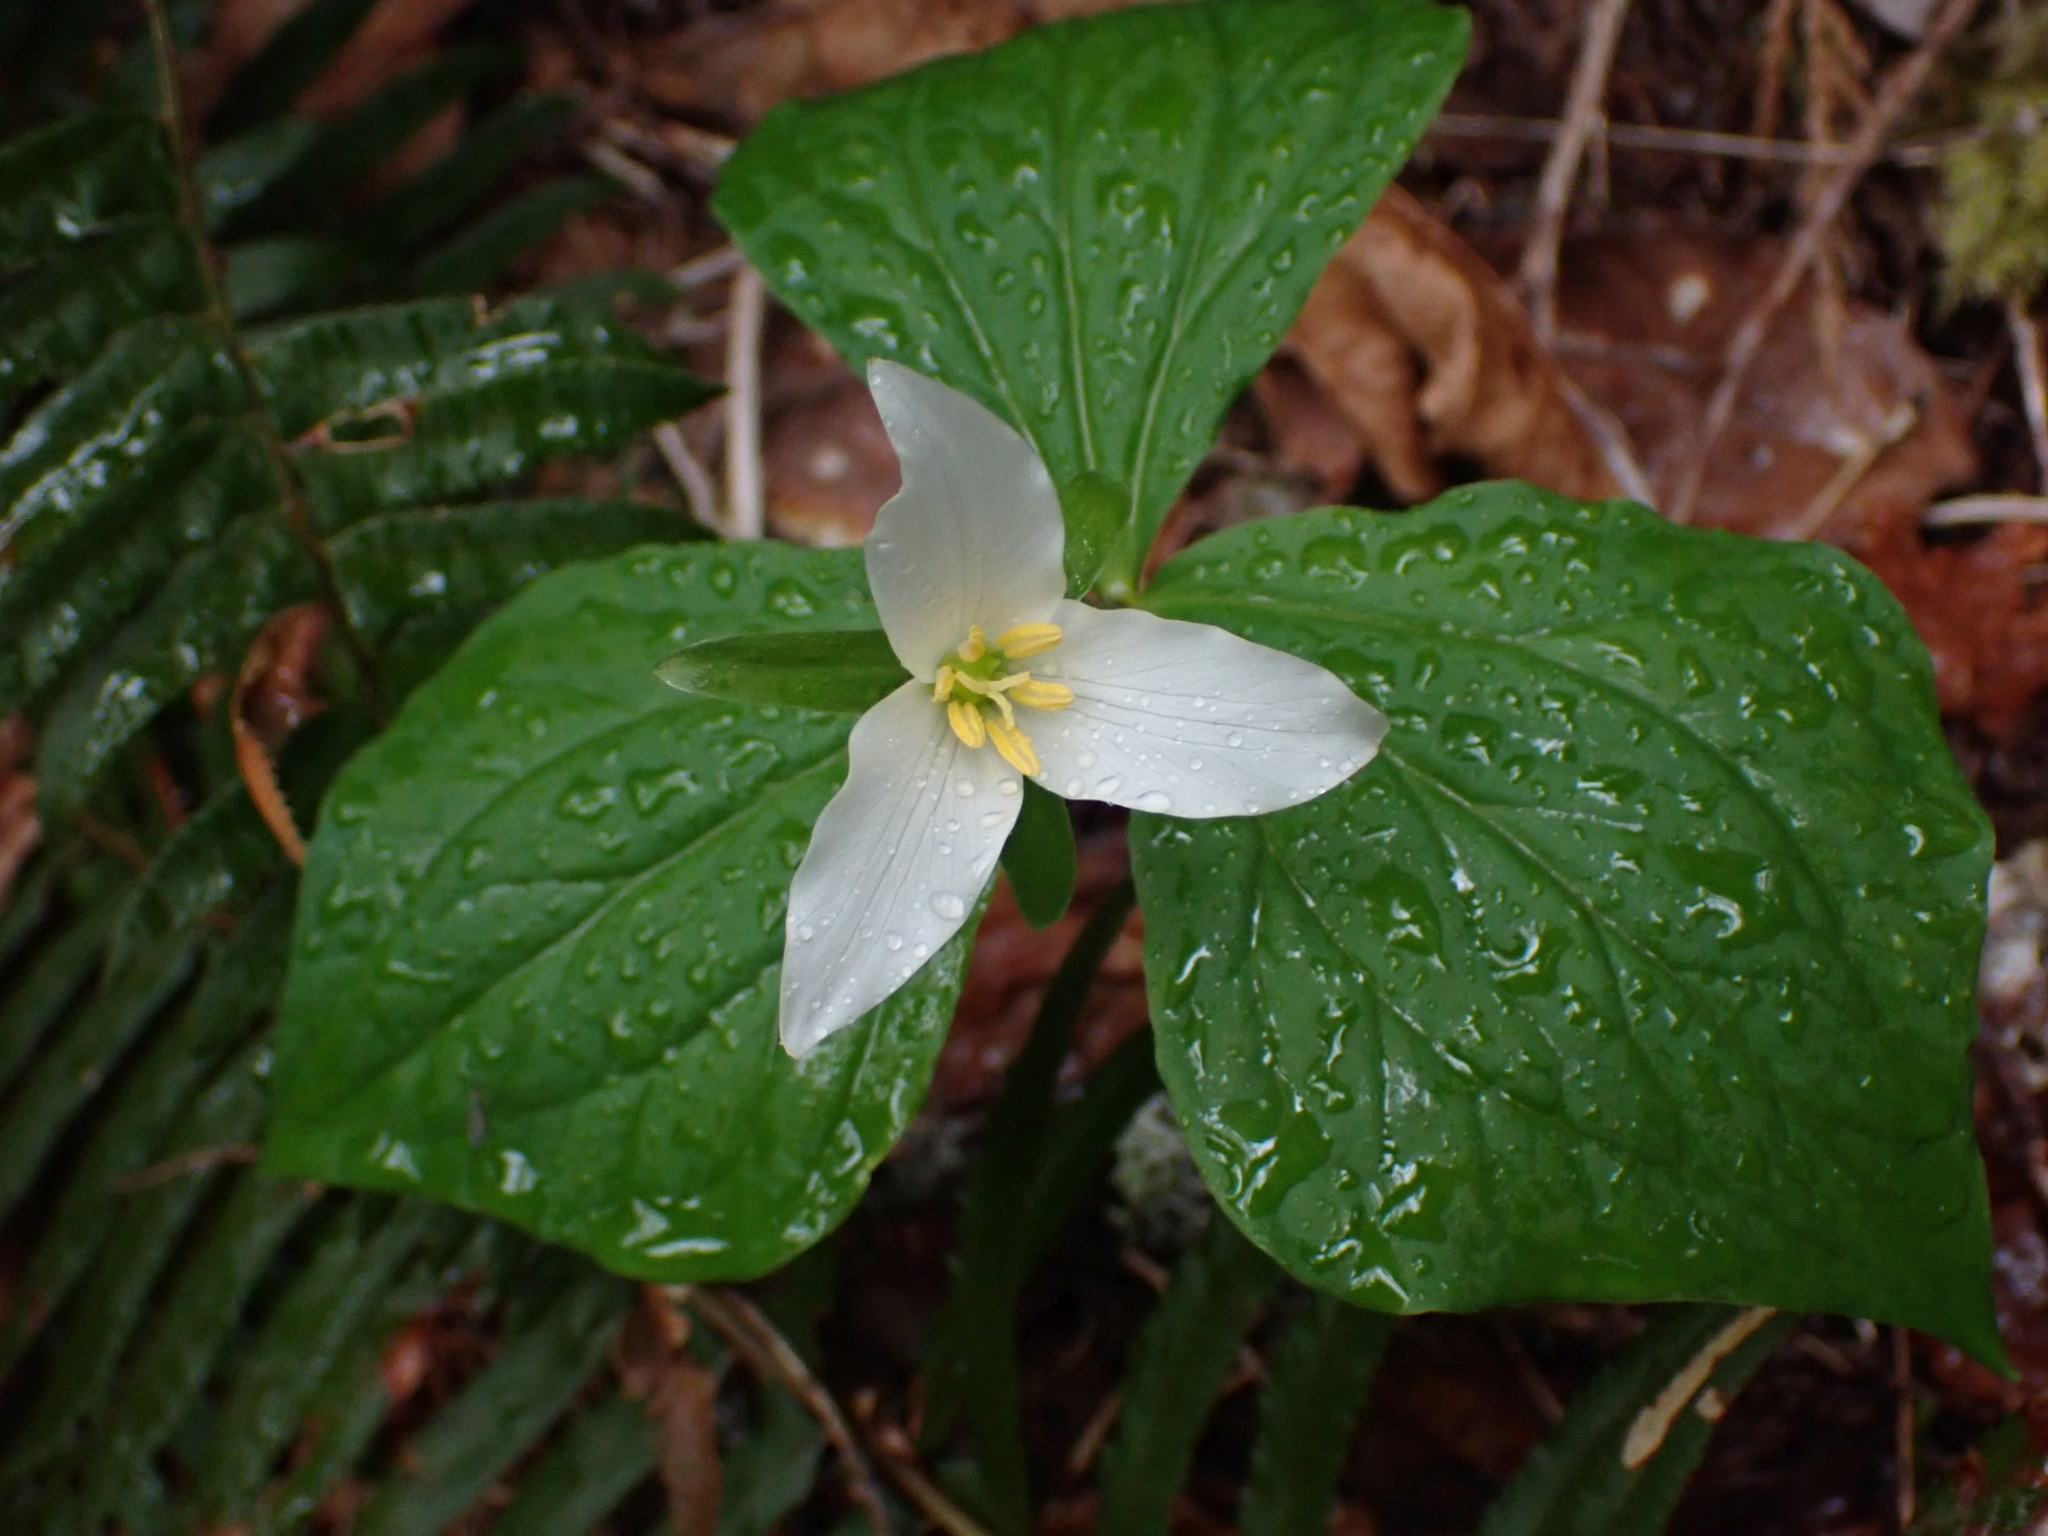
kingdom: Plantae
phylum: Tracheophyta
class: Liliopsida
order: Liliales
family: Melanthiaceae
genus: Trillium
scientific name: Trillium ovatum
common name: Pacific trillium
